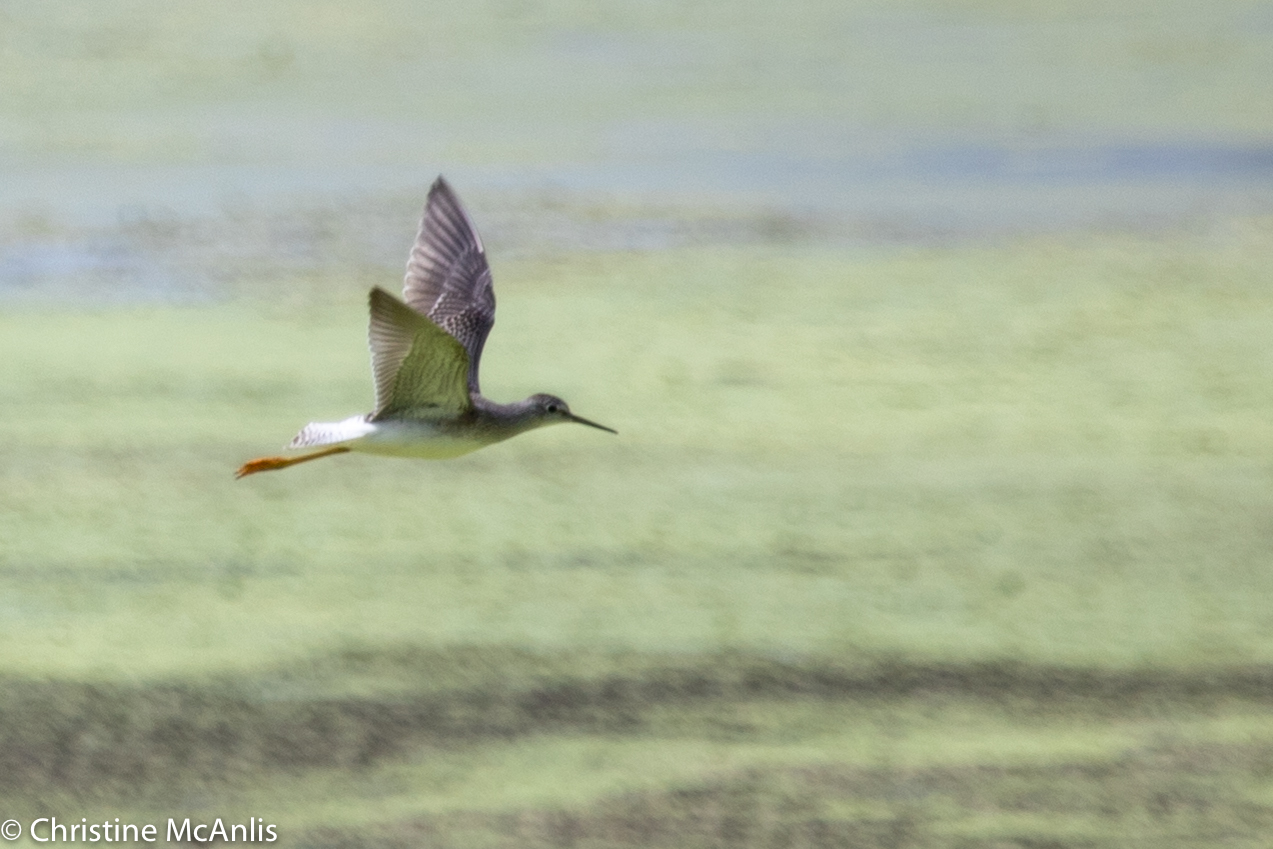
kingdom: Animalia
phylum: Chordata
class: Aves
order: Charadriiformes
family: Scolopacidae
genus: Tringa
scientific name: Tringa flavipes
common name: Lesser yellowlegs
